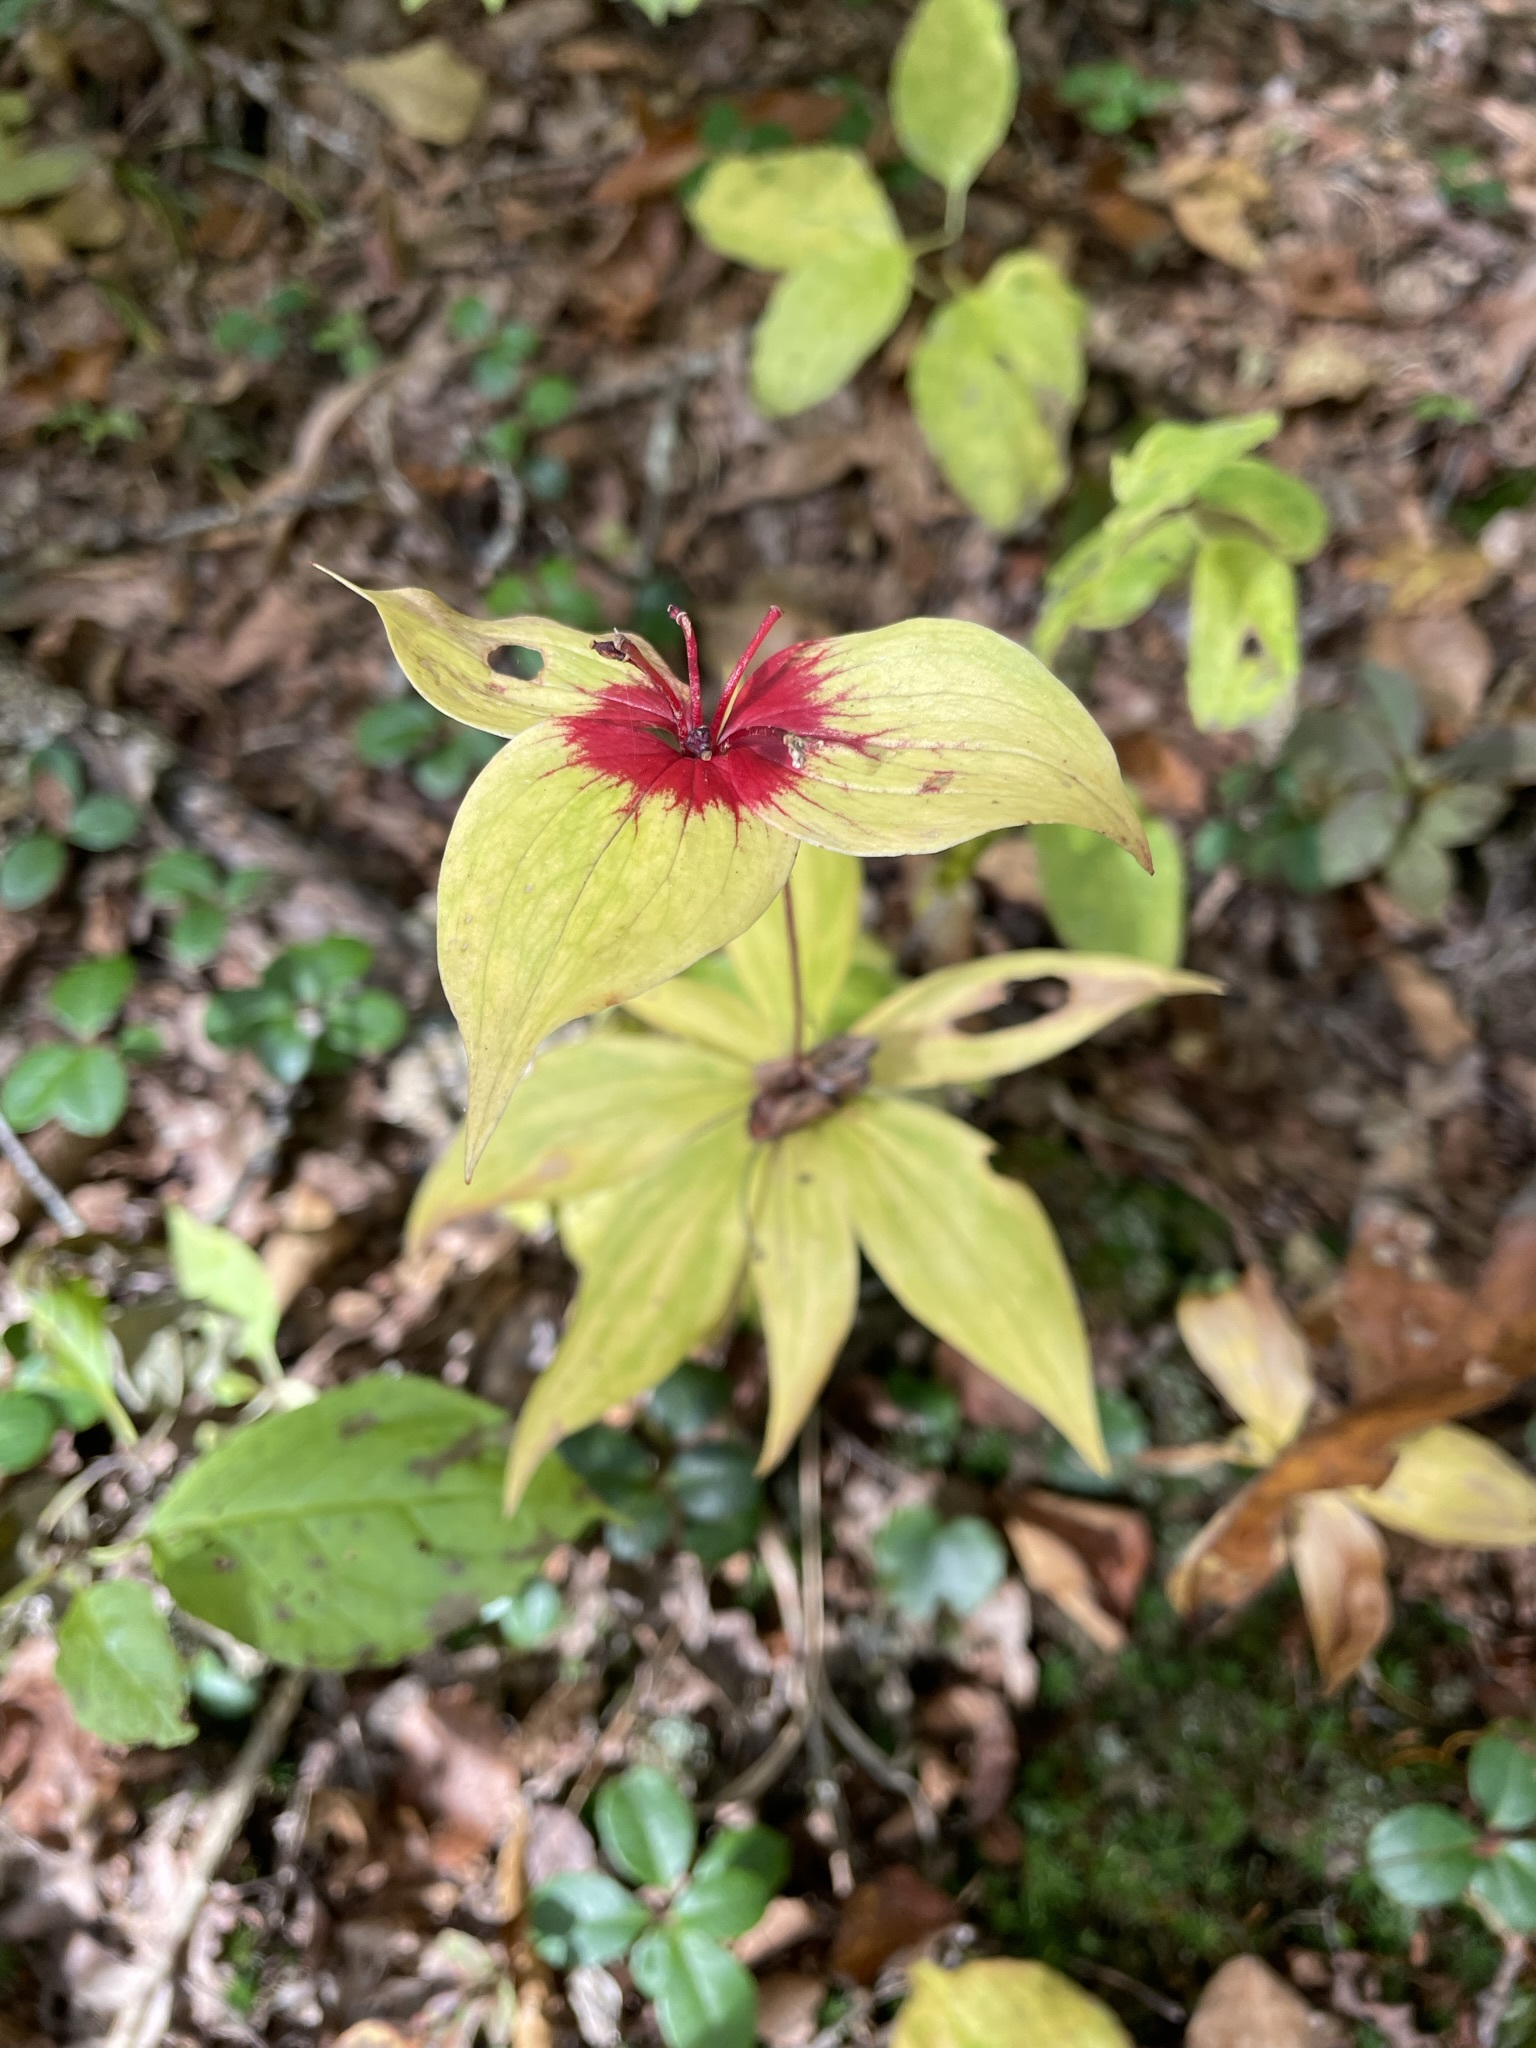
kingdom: Plantae
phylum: Tracheophyta
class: Liliopsida
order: Liliales
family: Liliaceae
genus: Medeola
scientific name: Medeola virginiana
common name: Indian cucumber-root
